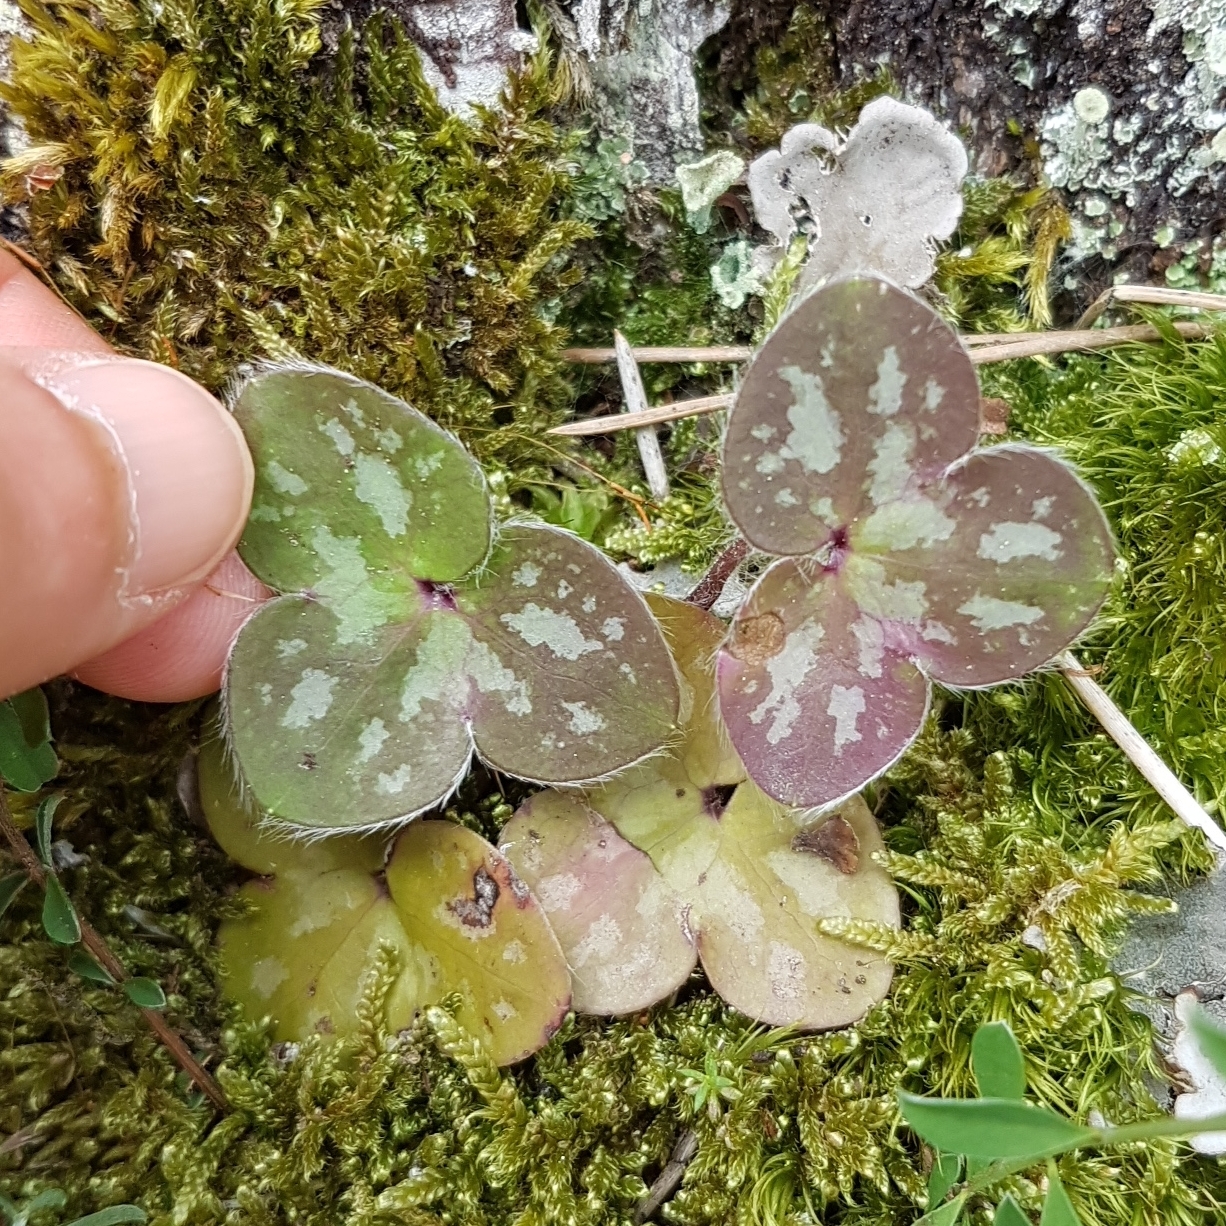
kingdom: Plantae
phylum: Tracheophyta
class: Magnoliopsida
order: Ranunculales
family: Ranunculaceae
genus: Hepatica
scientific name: Hepatica nobilis
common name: Liverleaf
